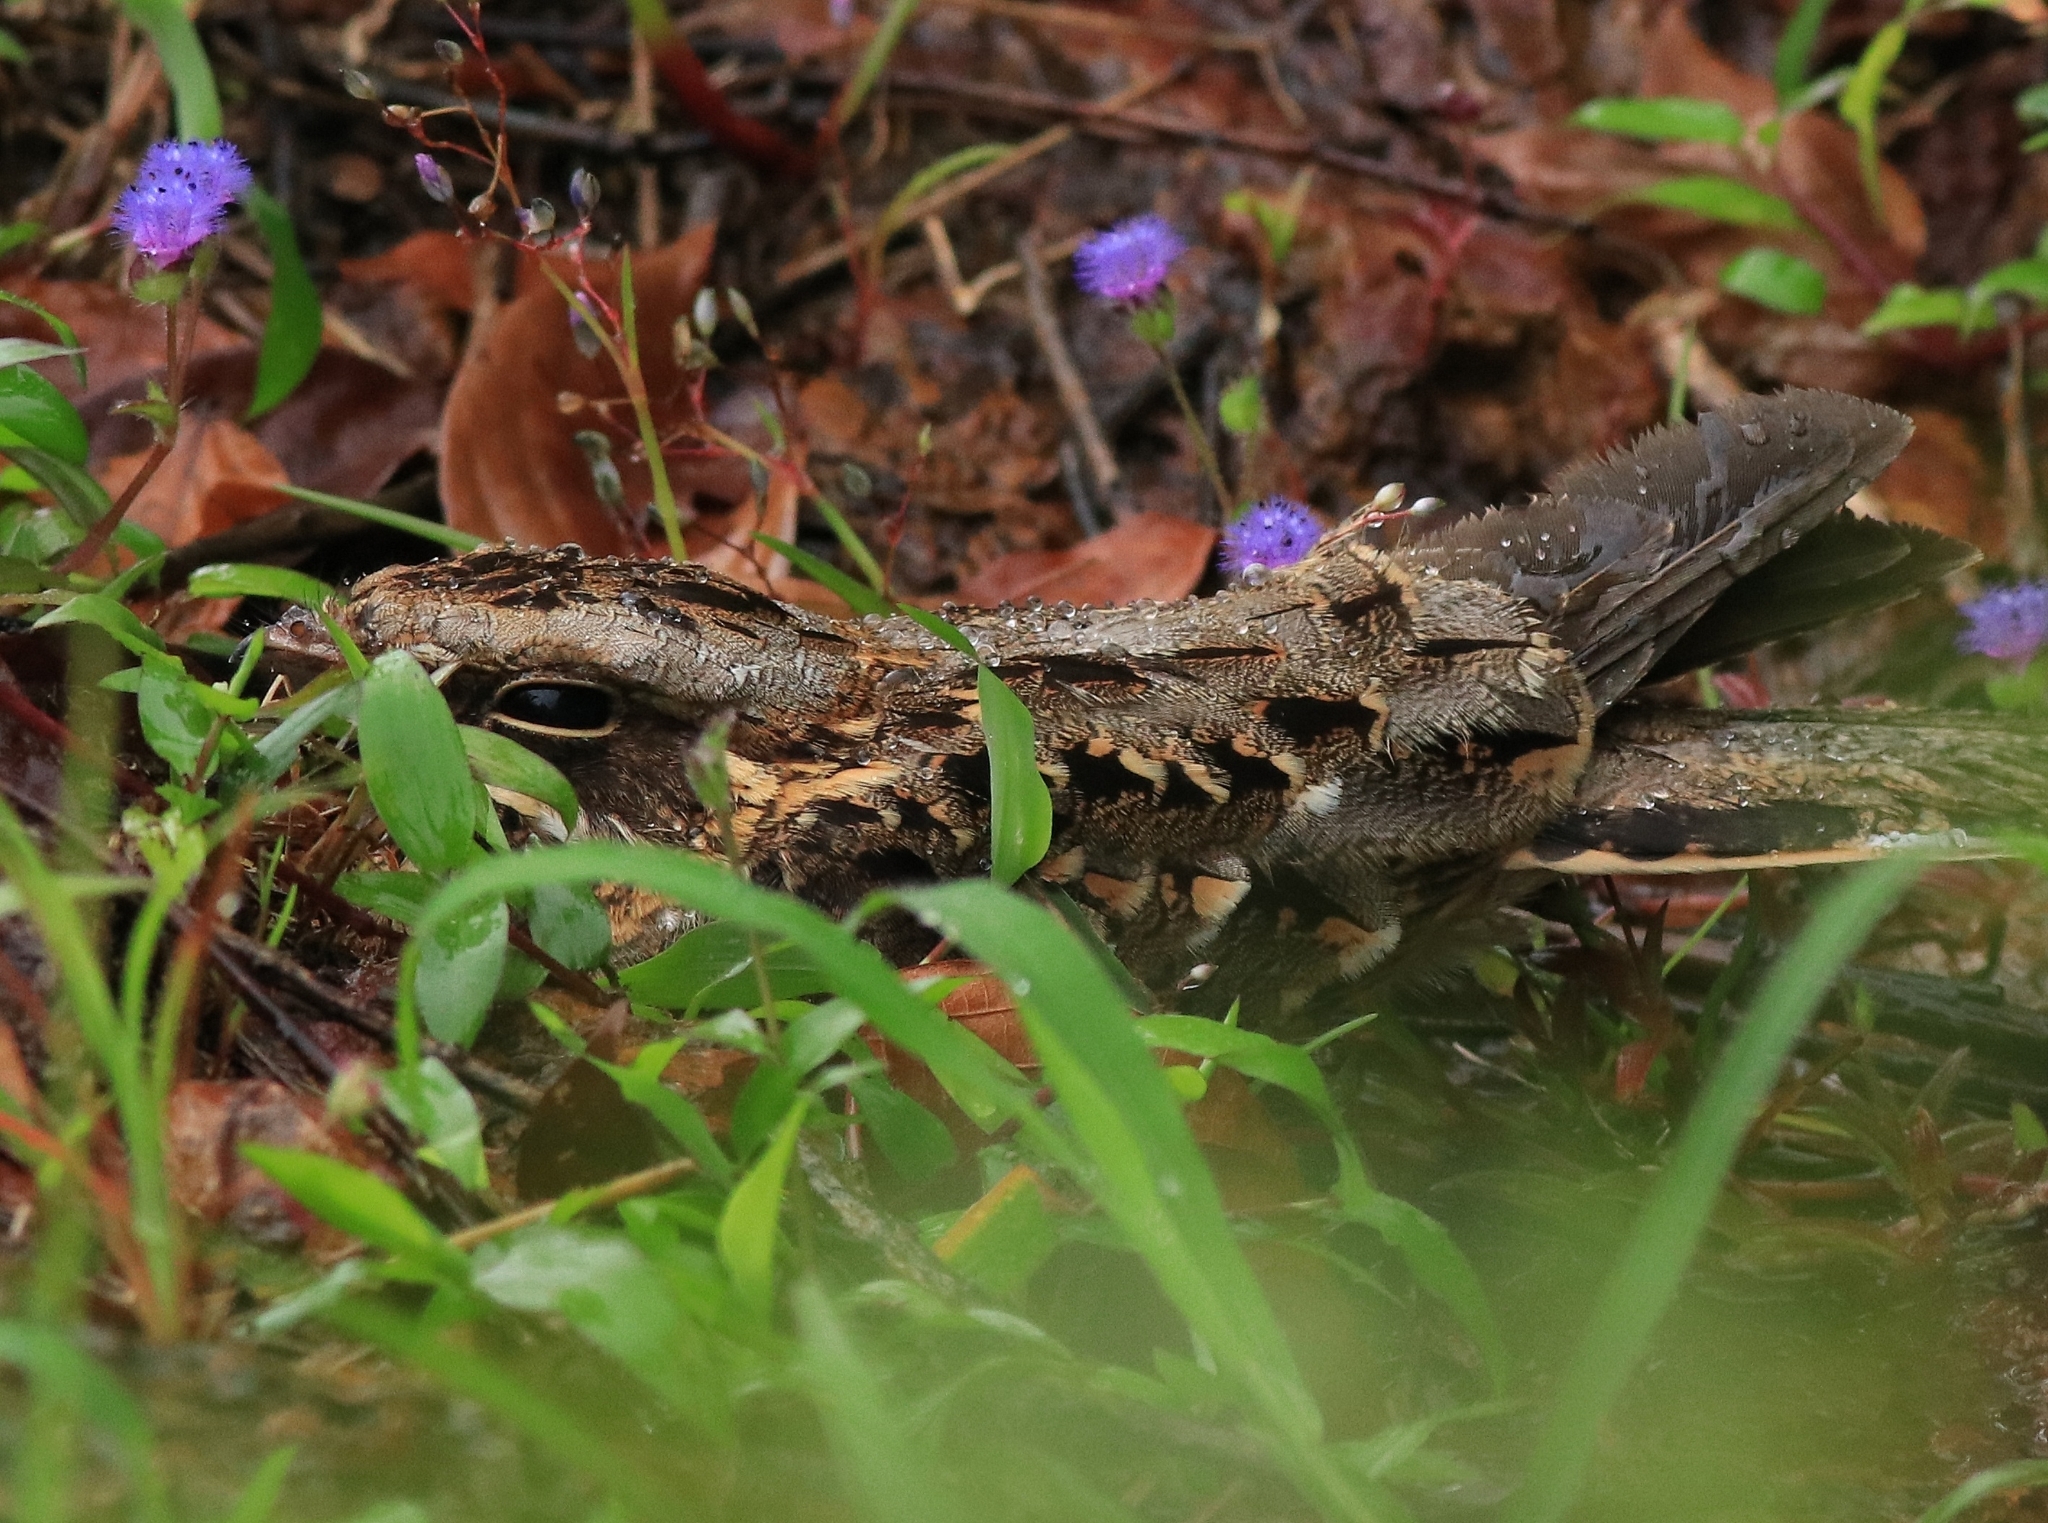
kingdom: Animalia
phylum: Chordata
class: Aves
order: Caprimulgiformes
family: Caprimulgidae
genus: Caprimulgus
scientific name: Caprimulgus asiaticus
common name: Indian nightjar
